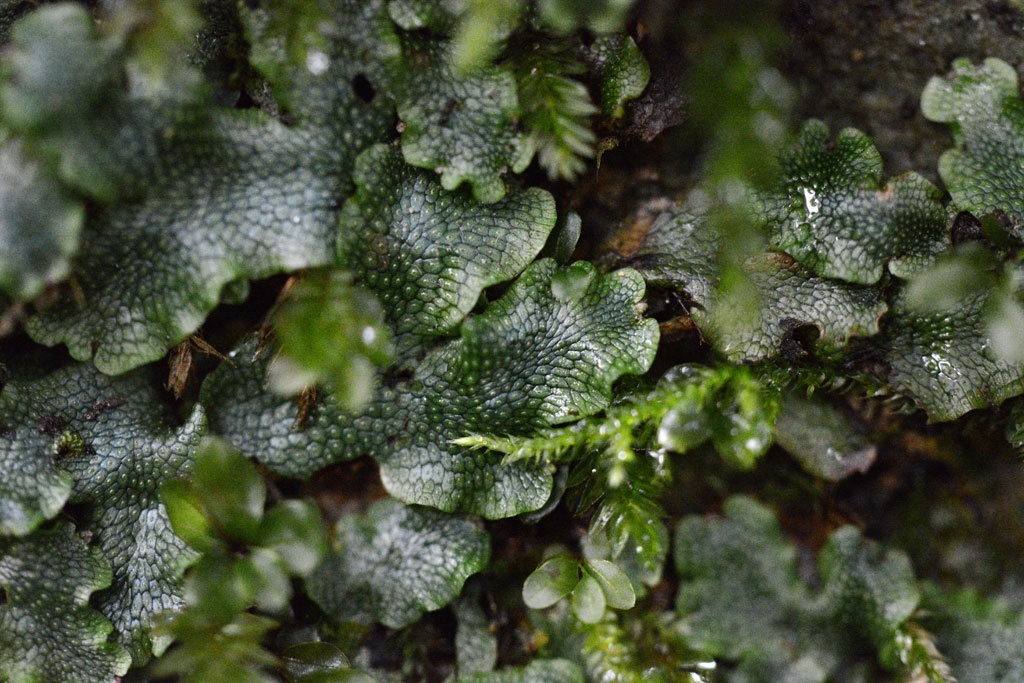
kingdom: Plantae
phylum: Marchantiophyta
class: Marchantiopsida
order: Marchantiales
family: Conocephalaceae
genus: Conocephalum
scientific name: Conocephalum salebrosum
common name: Cat-tongue liverwort
